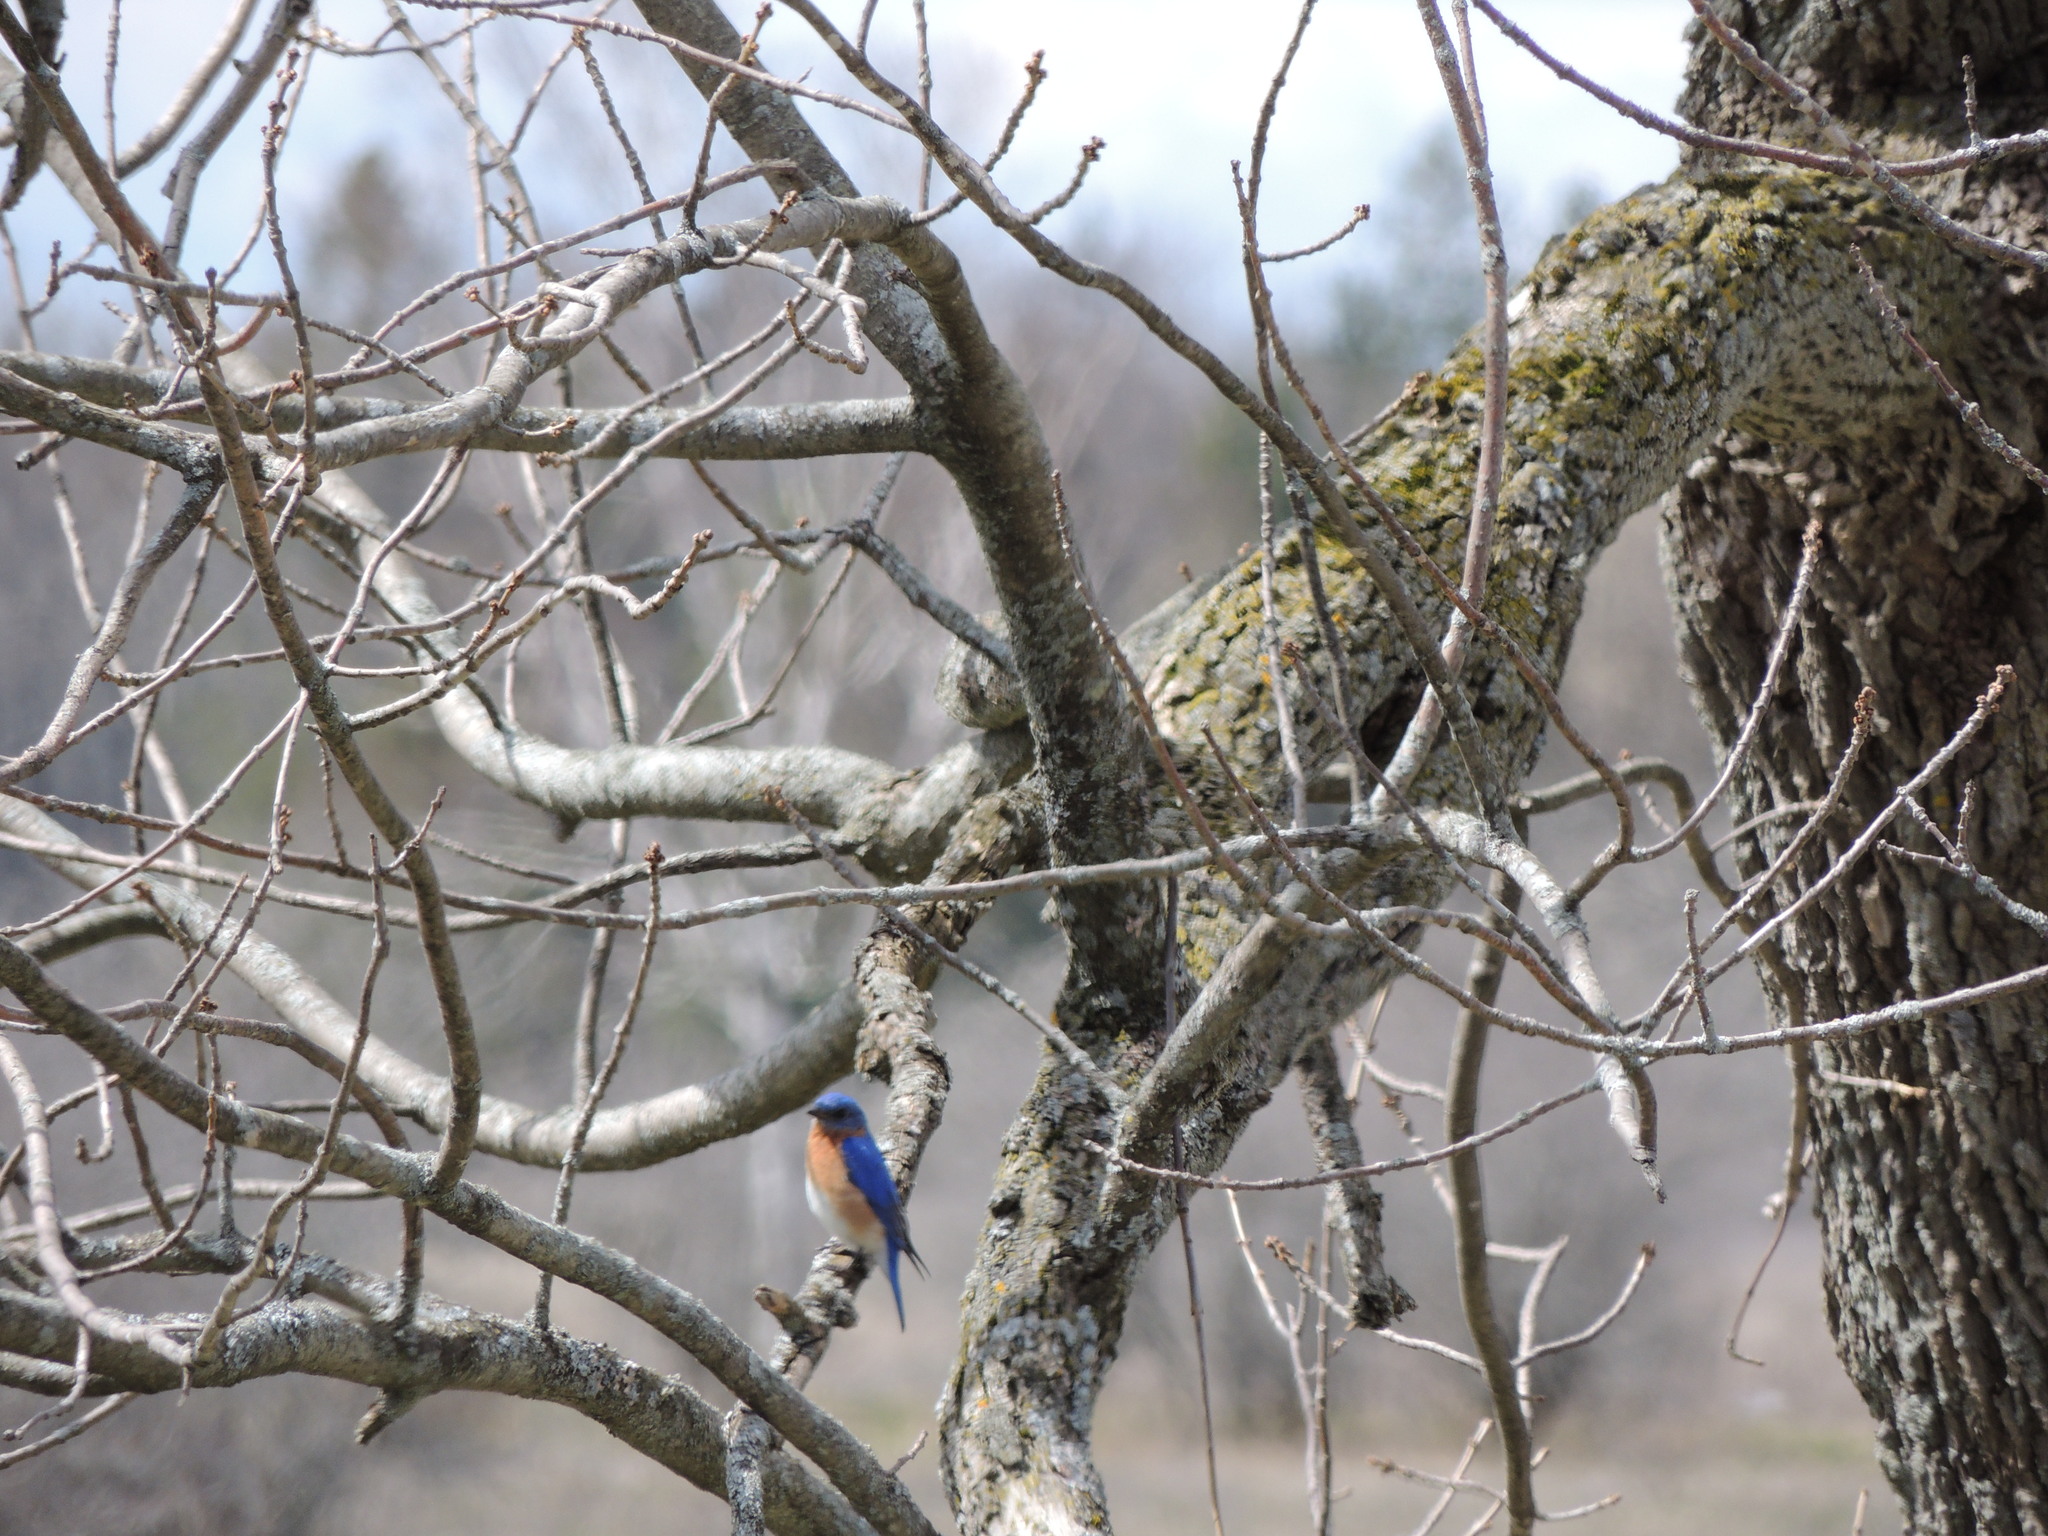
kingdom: Animalia
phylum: Chordata
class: Aves
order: Passeriformes
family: Turdidae
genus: Sialia
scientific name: Sialia sialis
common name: Eastern bluebird
